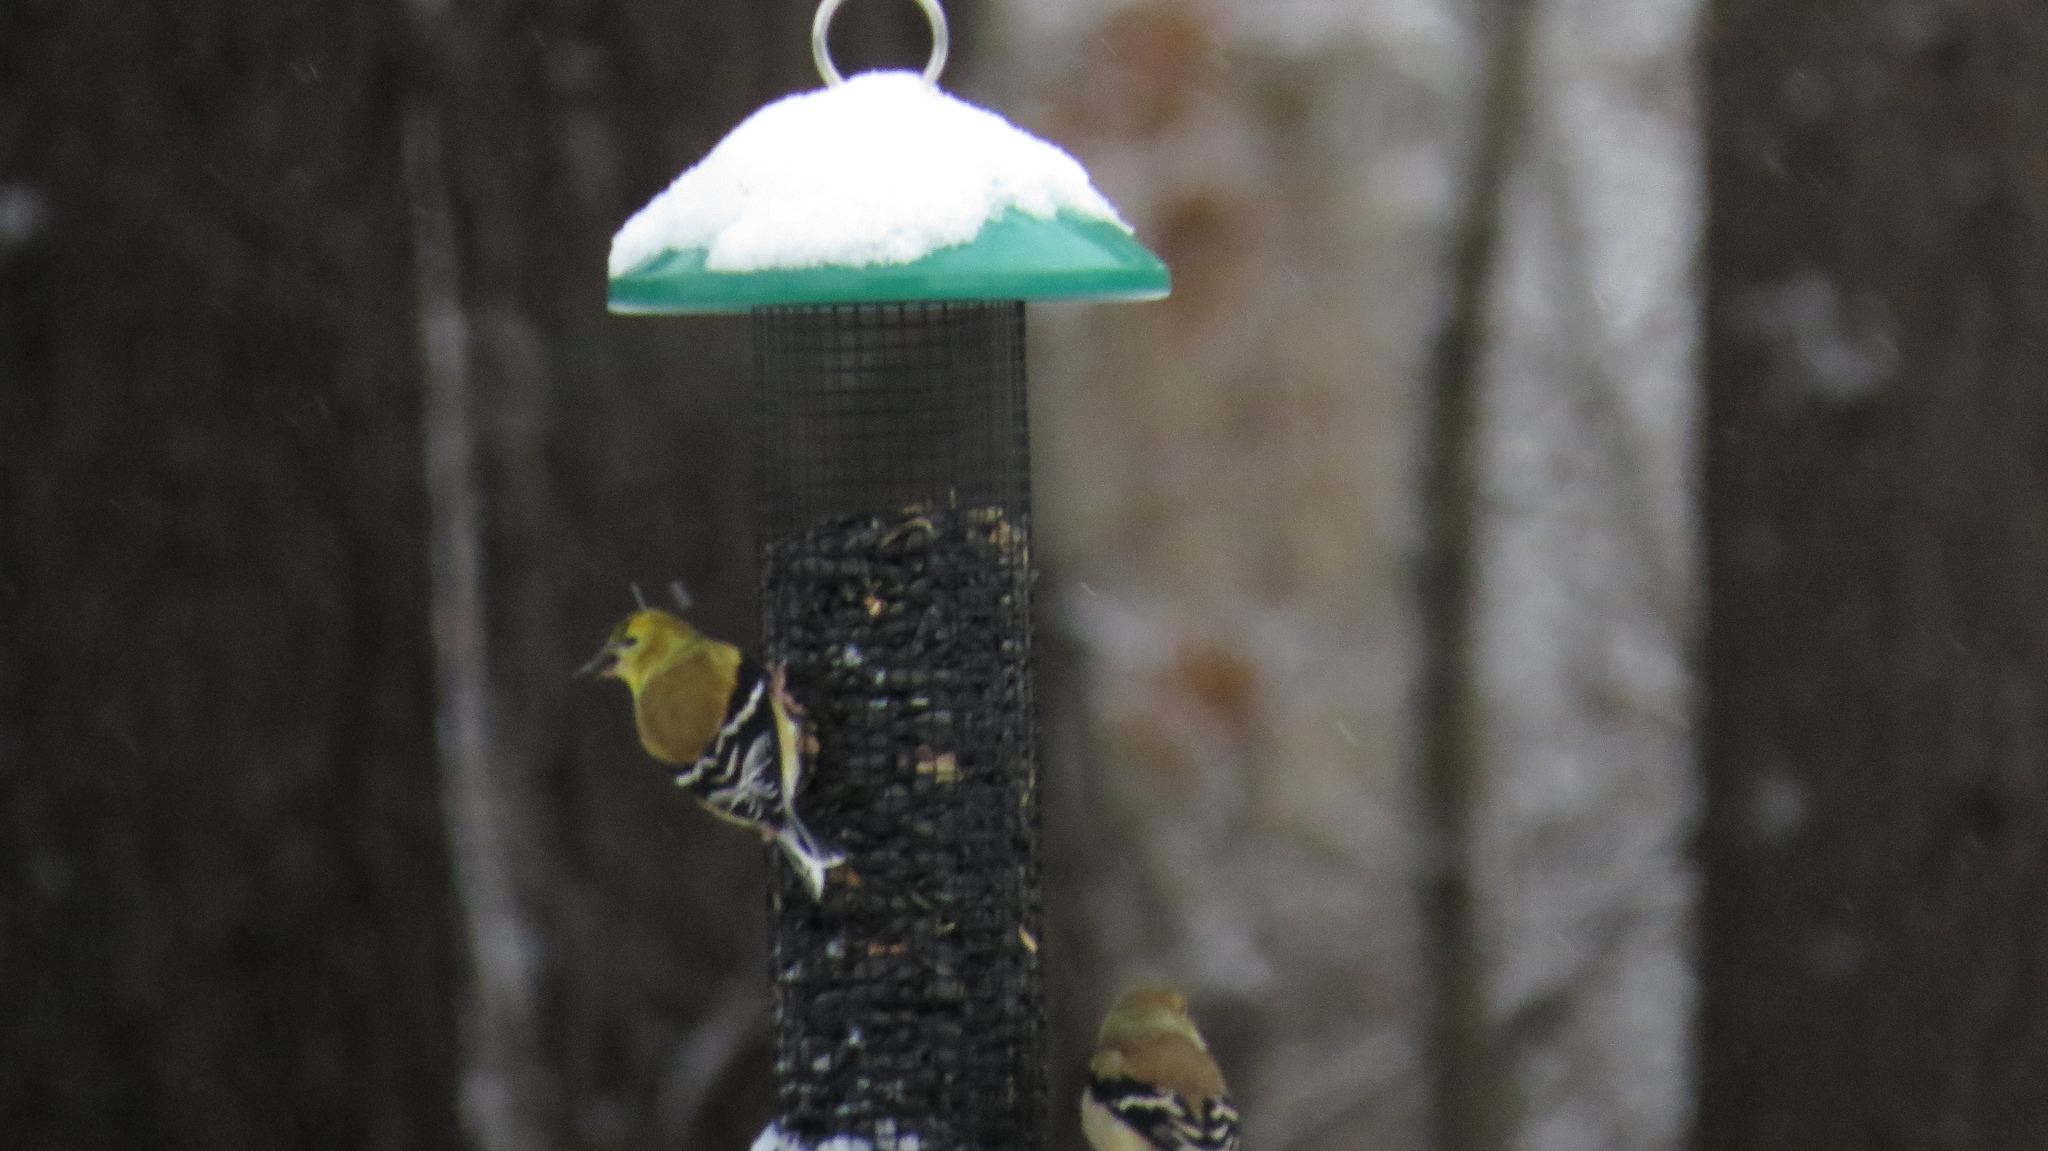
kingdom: Animalia
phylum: Chordata
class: Aves
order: Passeriformes
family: Fringillidae
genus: Spinus
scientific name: Spinus tristis
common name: American goldfinch
